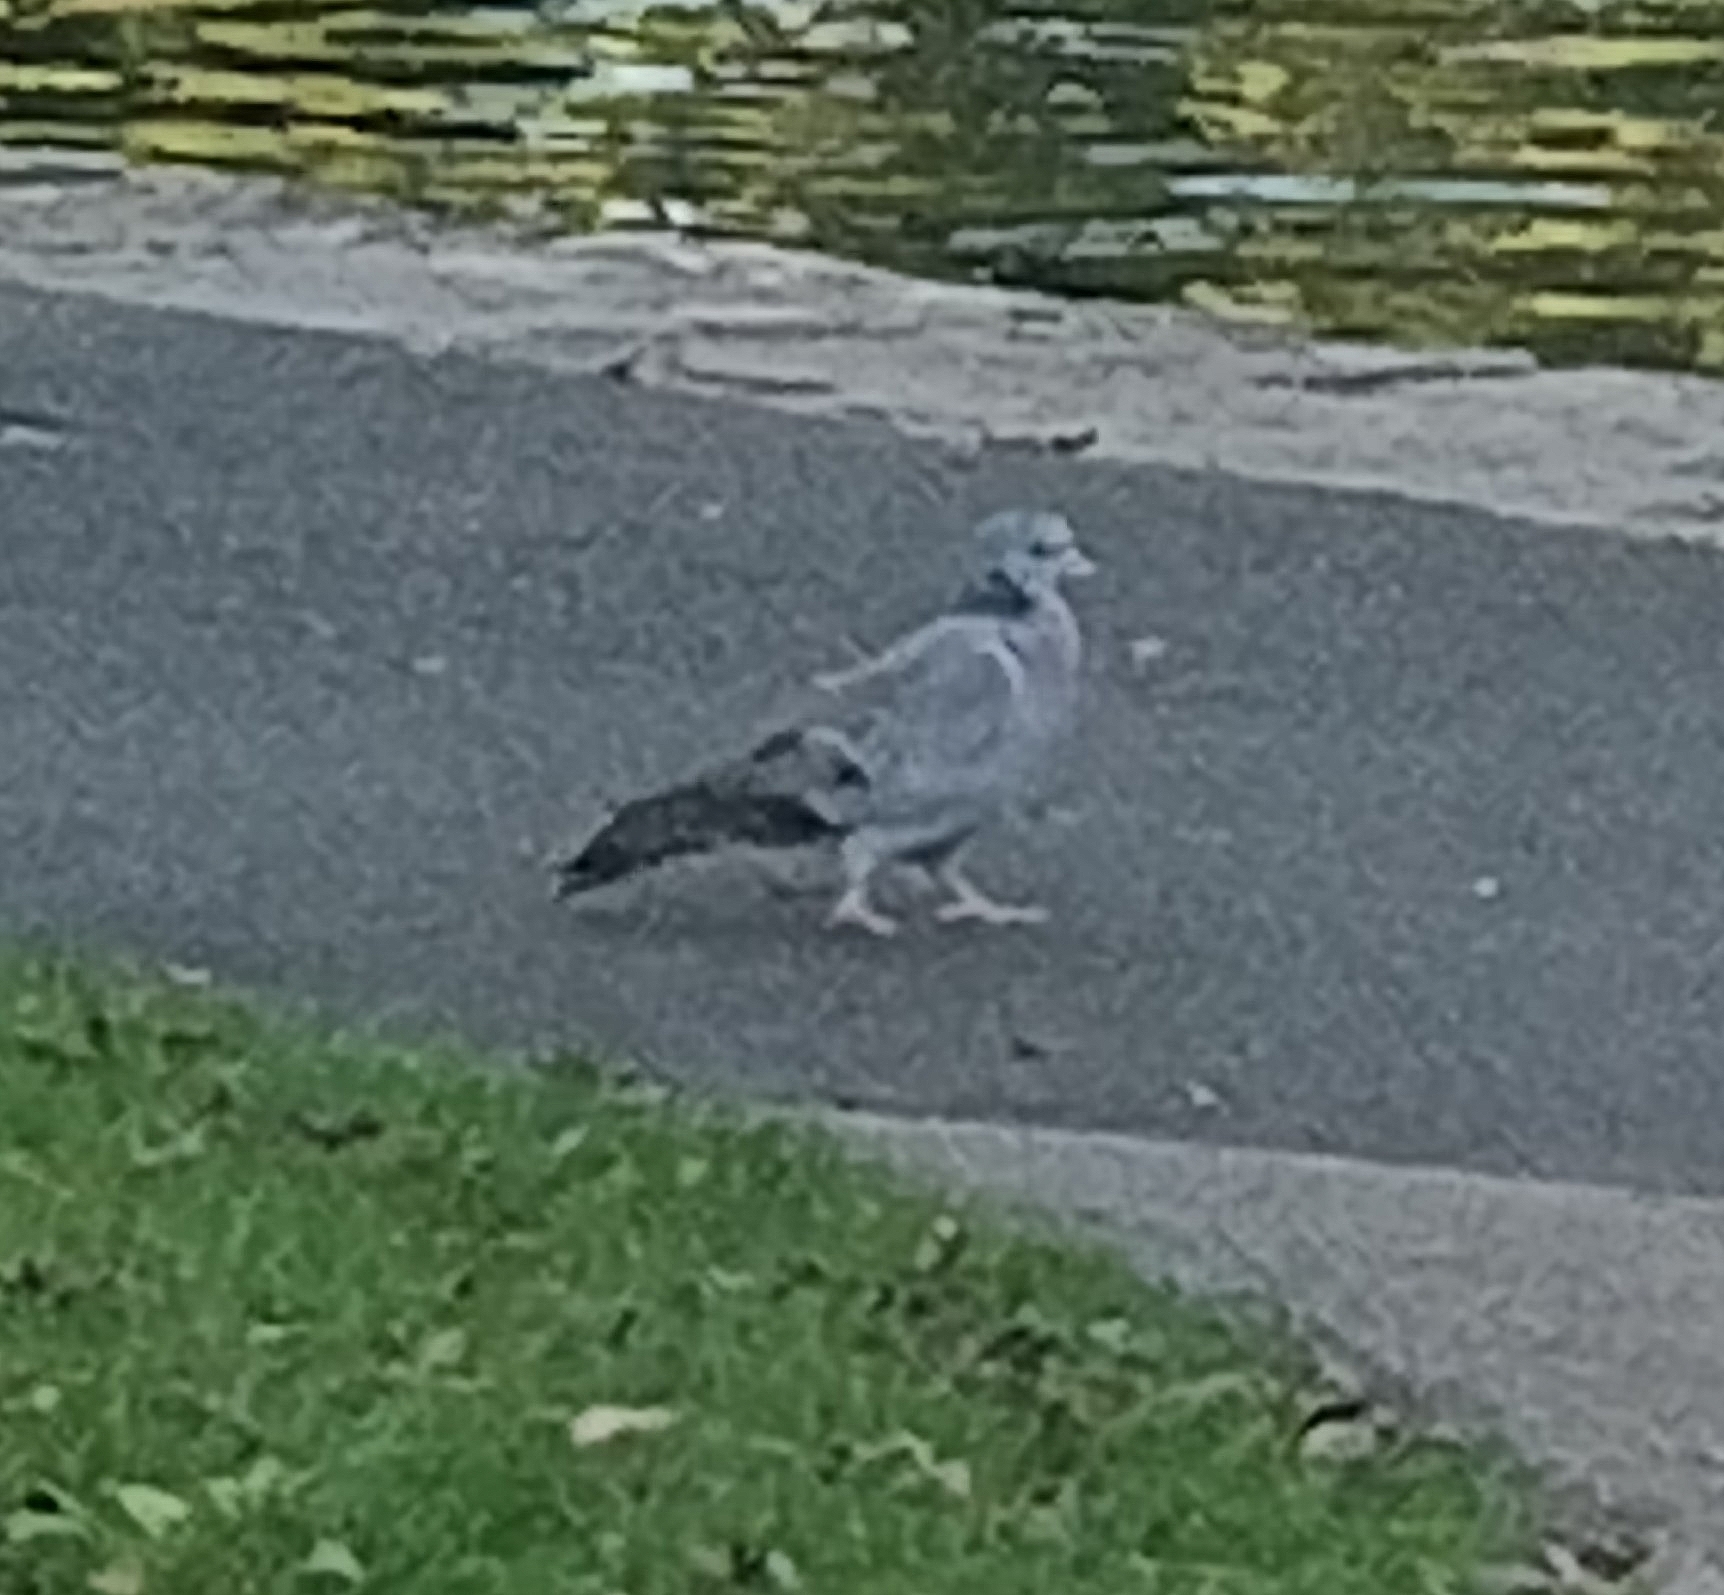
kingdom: Animalia
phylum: Chordata
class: Aves
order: Columbiformes
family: Columbidae
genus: Columba
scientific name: Columba oenas
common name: Stock dove
